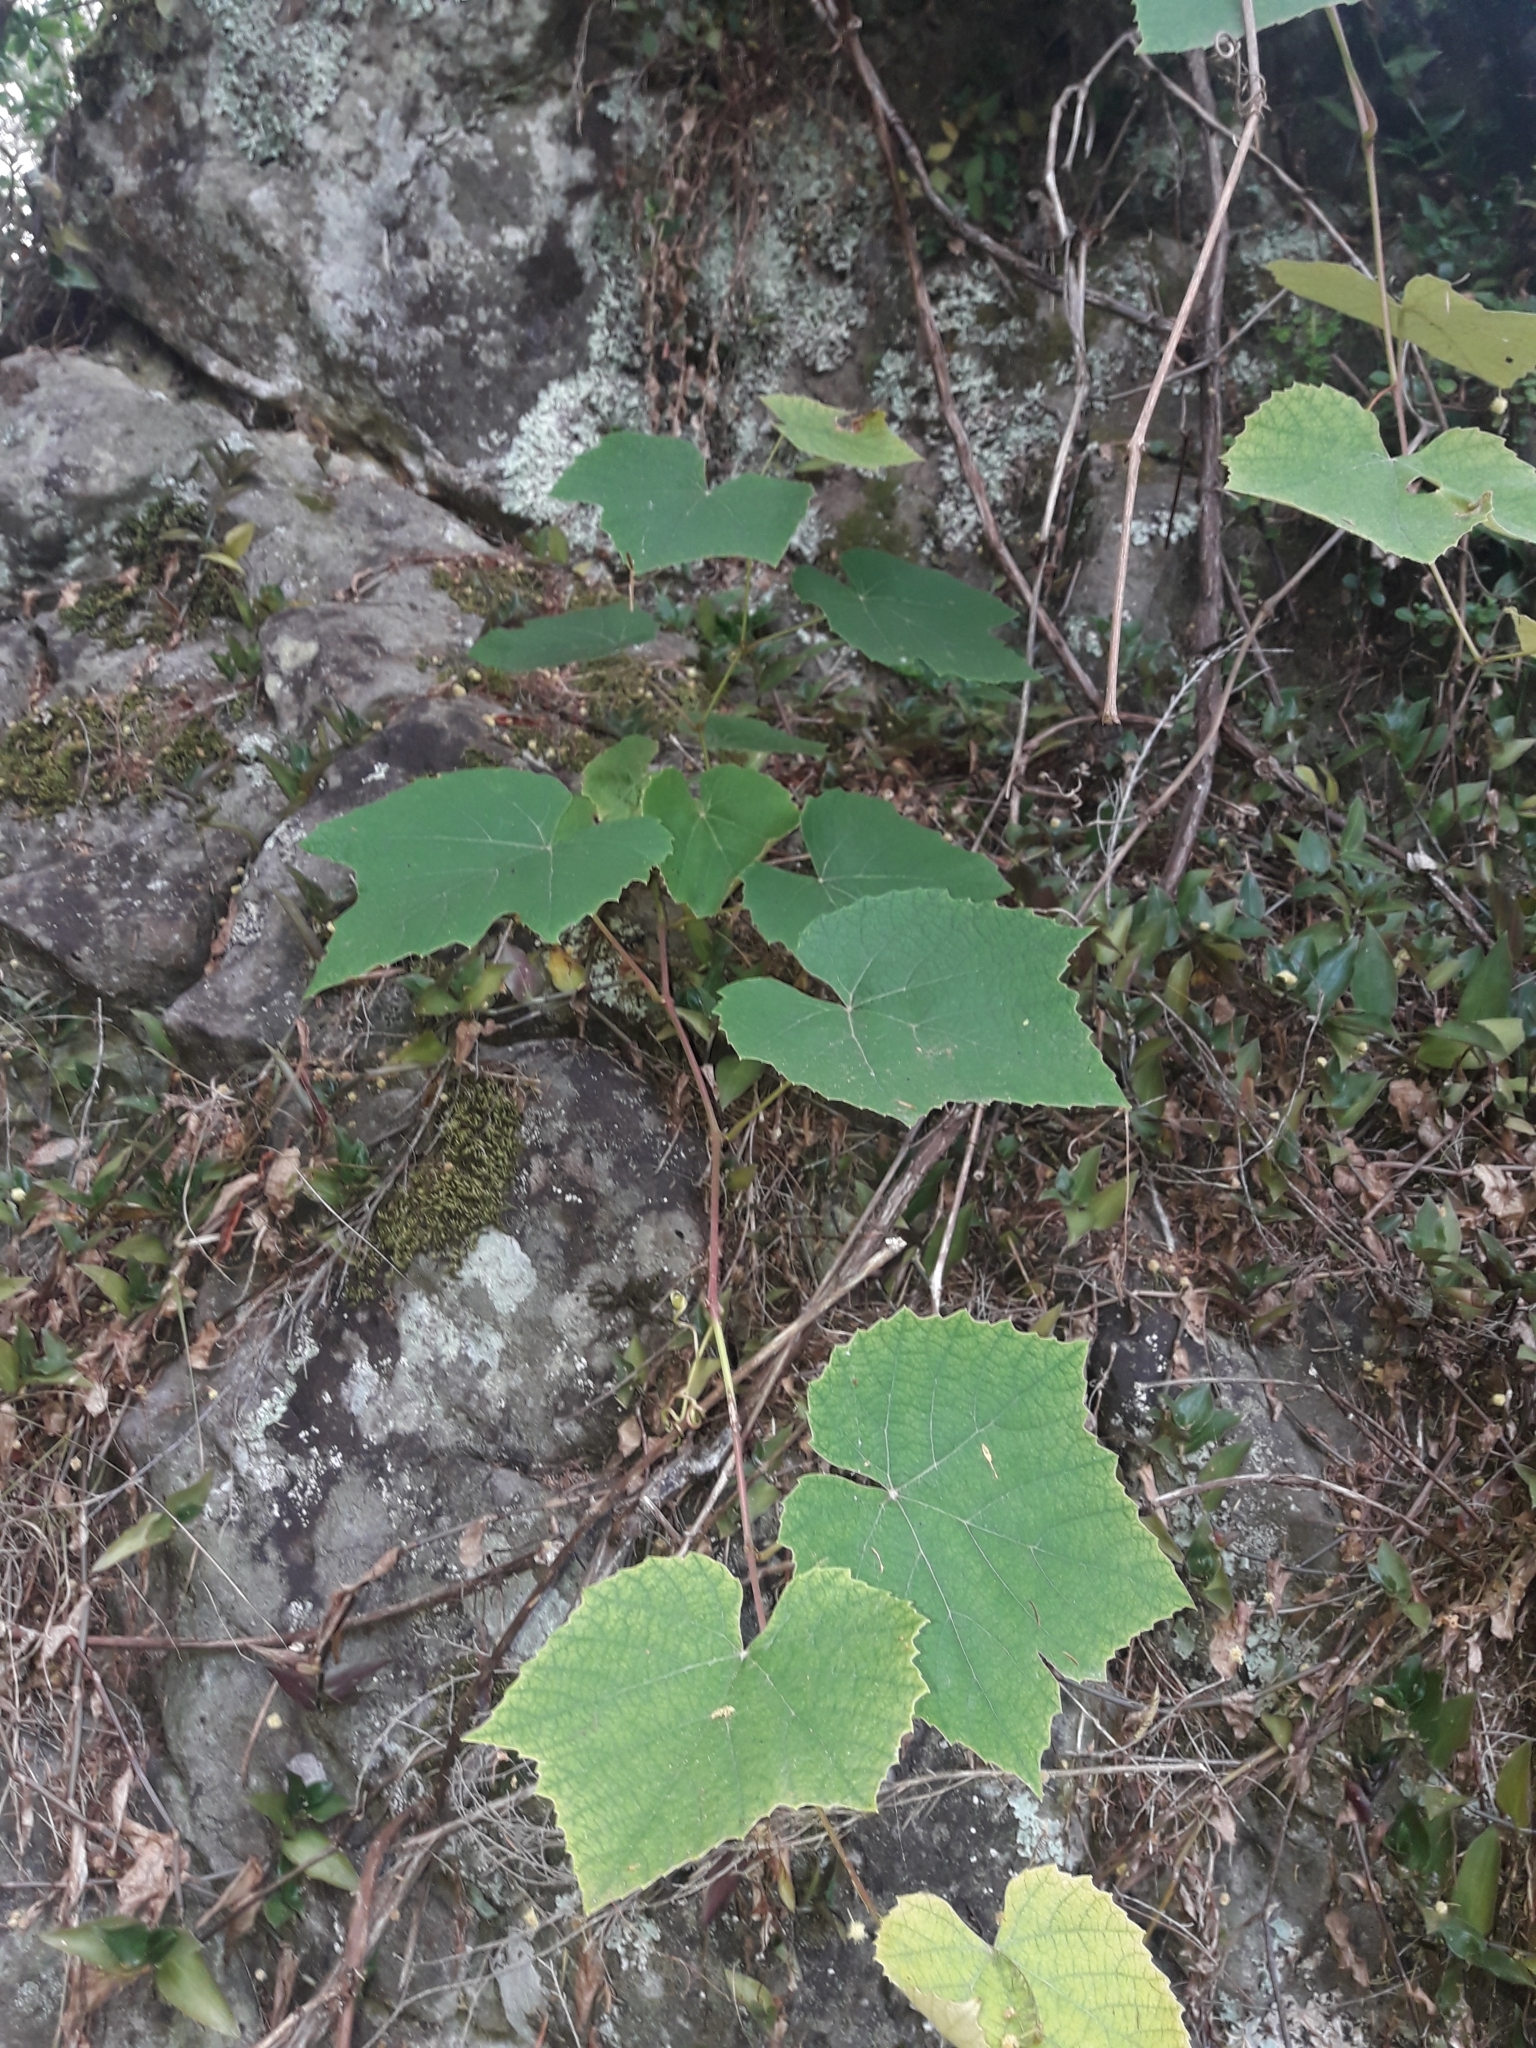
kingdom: Plantae
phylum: Tracheophyta
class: Magnoliopsida
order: Vitales
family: Vitaceae
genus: Vitis
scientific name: Vitis vinifera
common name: Grape-vine
